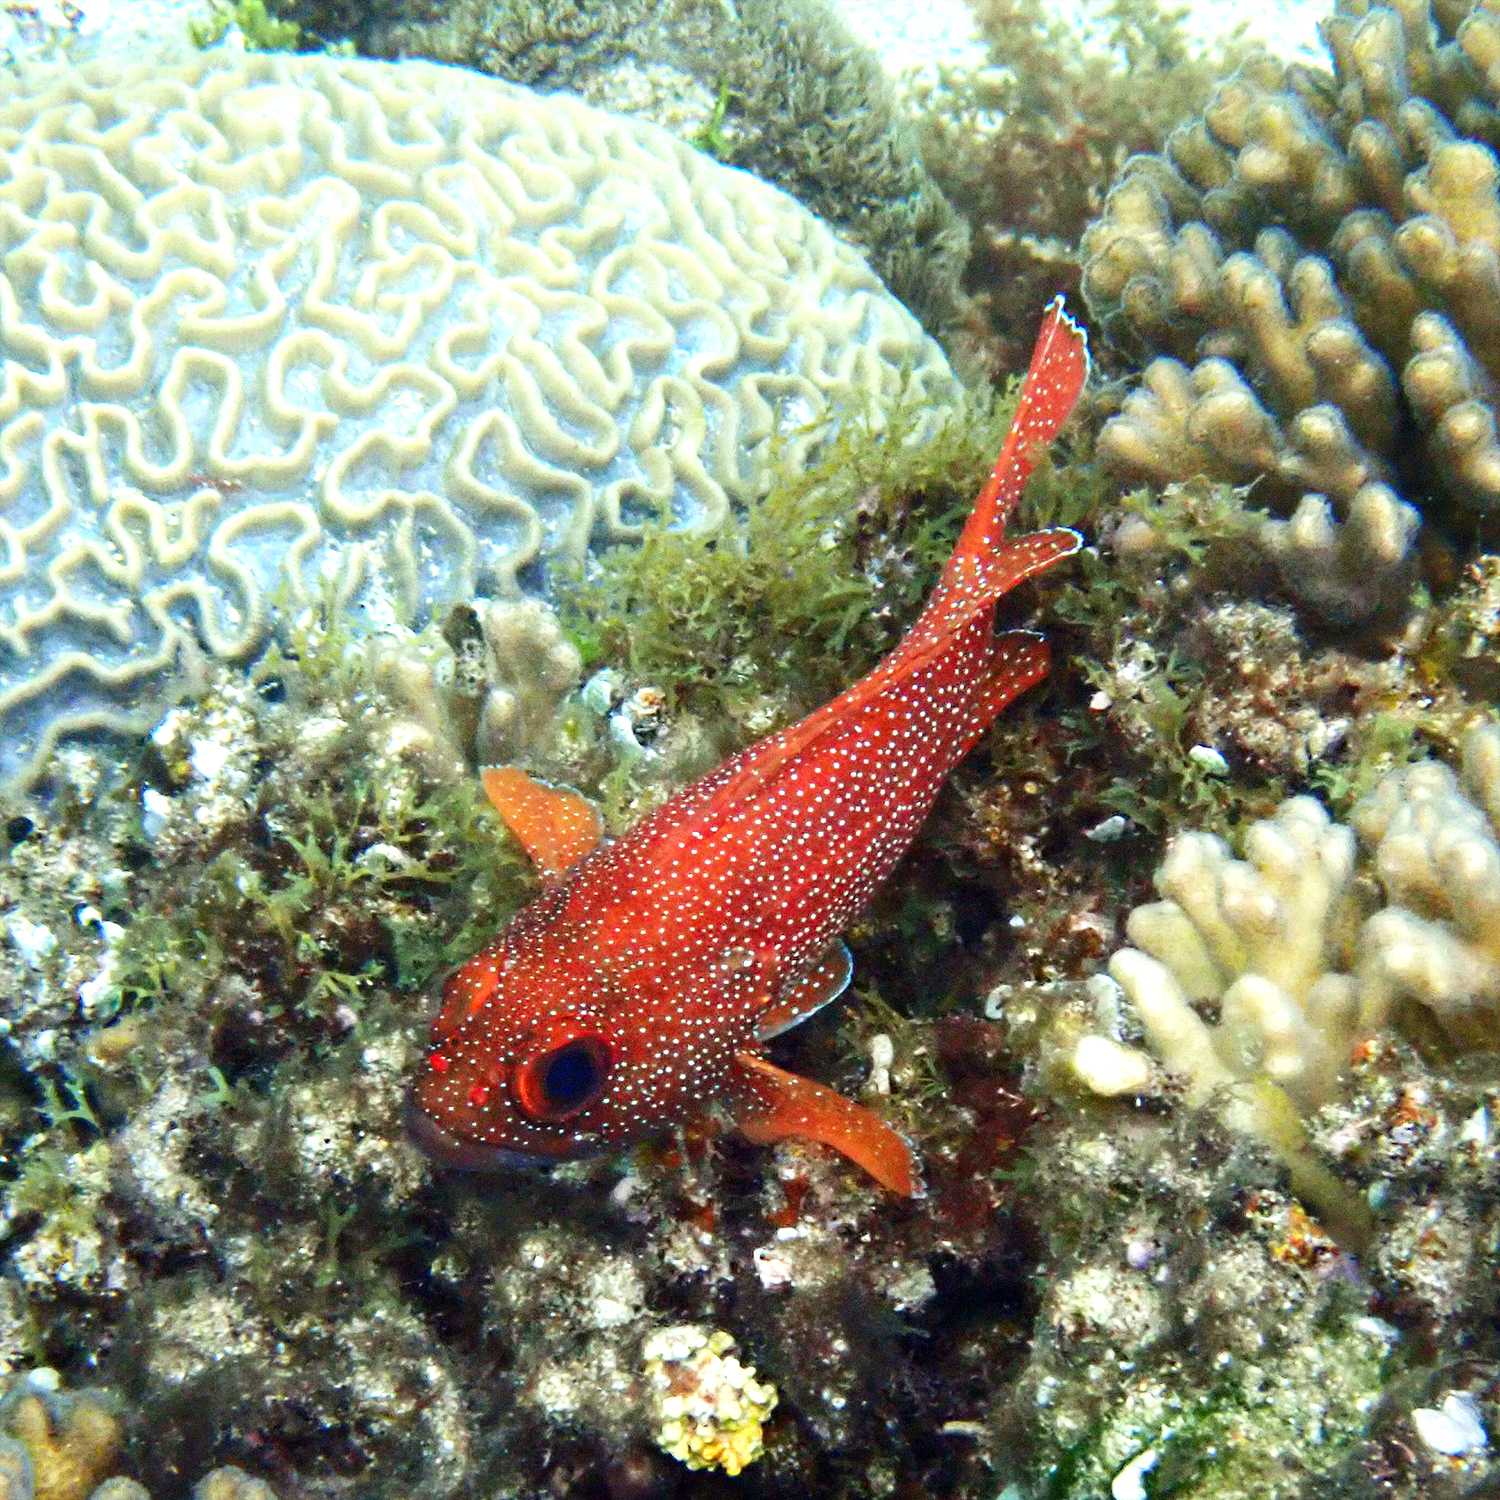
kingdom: Animalia
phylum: Chordata
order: Perciformes
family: Serranidae
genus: Trachypoma
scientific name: Trachypoma macracanthus
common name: Toadstool grouper
